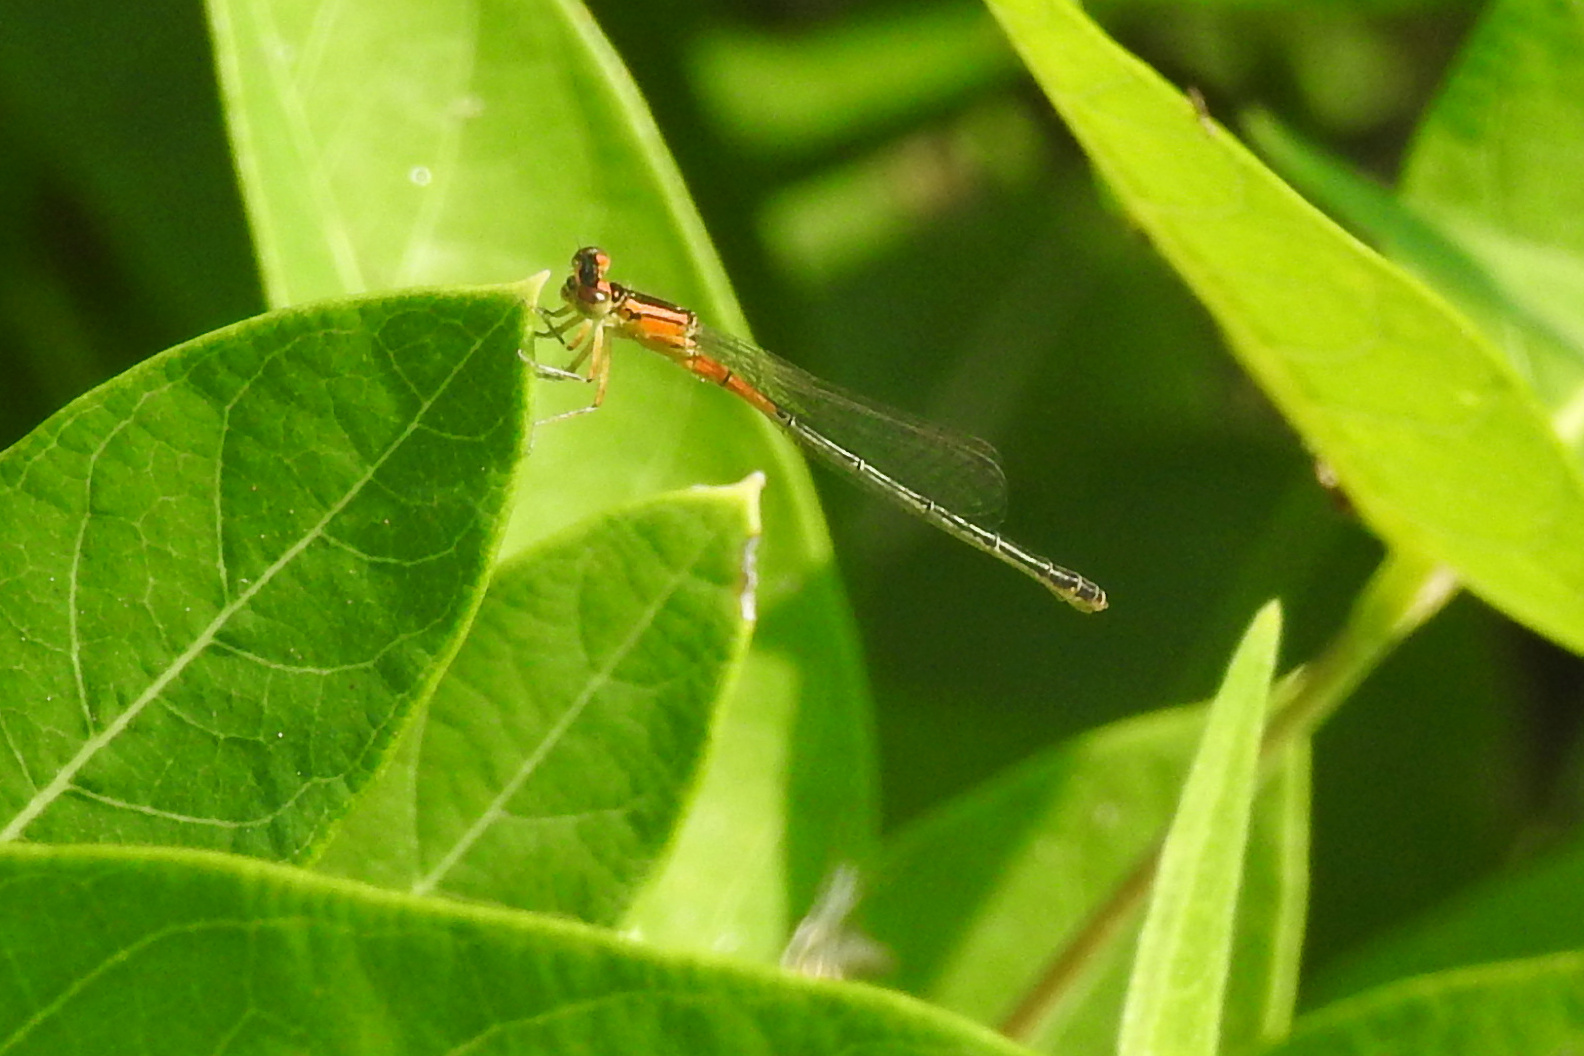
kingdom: Animalia
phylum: Arthropoda
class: Insecta
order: Odonata
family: Coenagrionidae
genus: Ischnura
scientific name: Ischnura verticalis
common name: Eastern forktail
